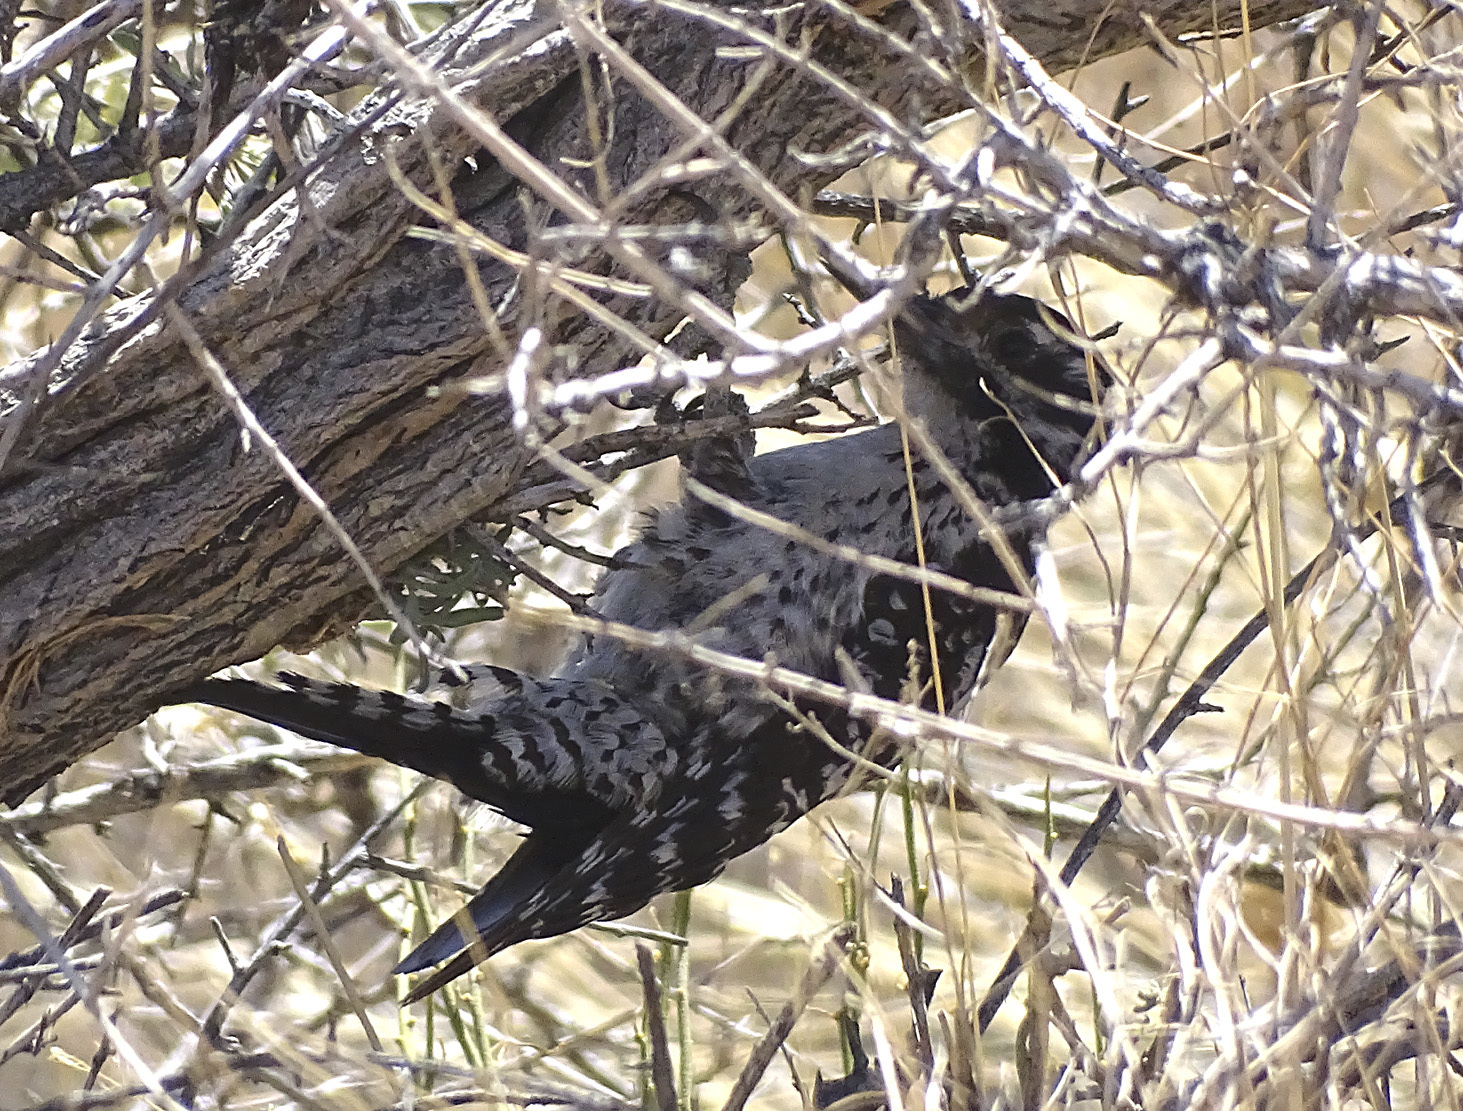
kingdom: Animalia
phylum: Chordata
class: Aves
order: Piciformes
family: Picidae
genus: Dryobates
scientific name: Dryobates scalaris
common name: Ladder-backed woodpecker
